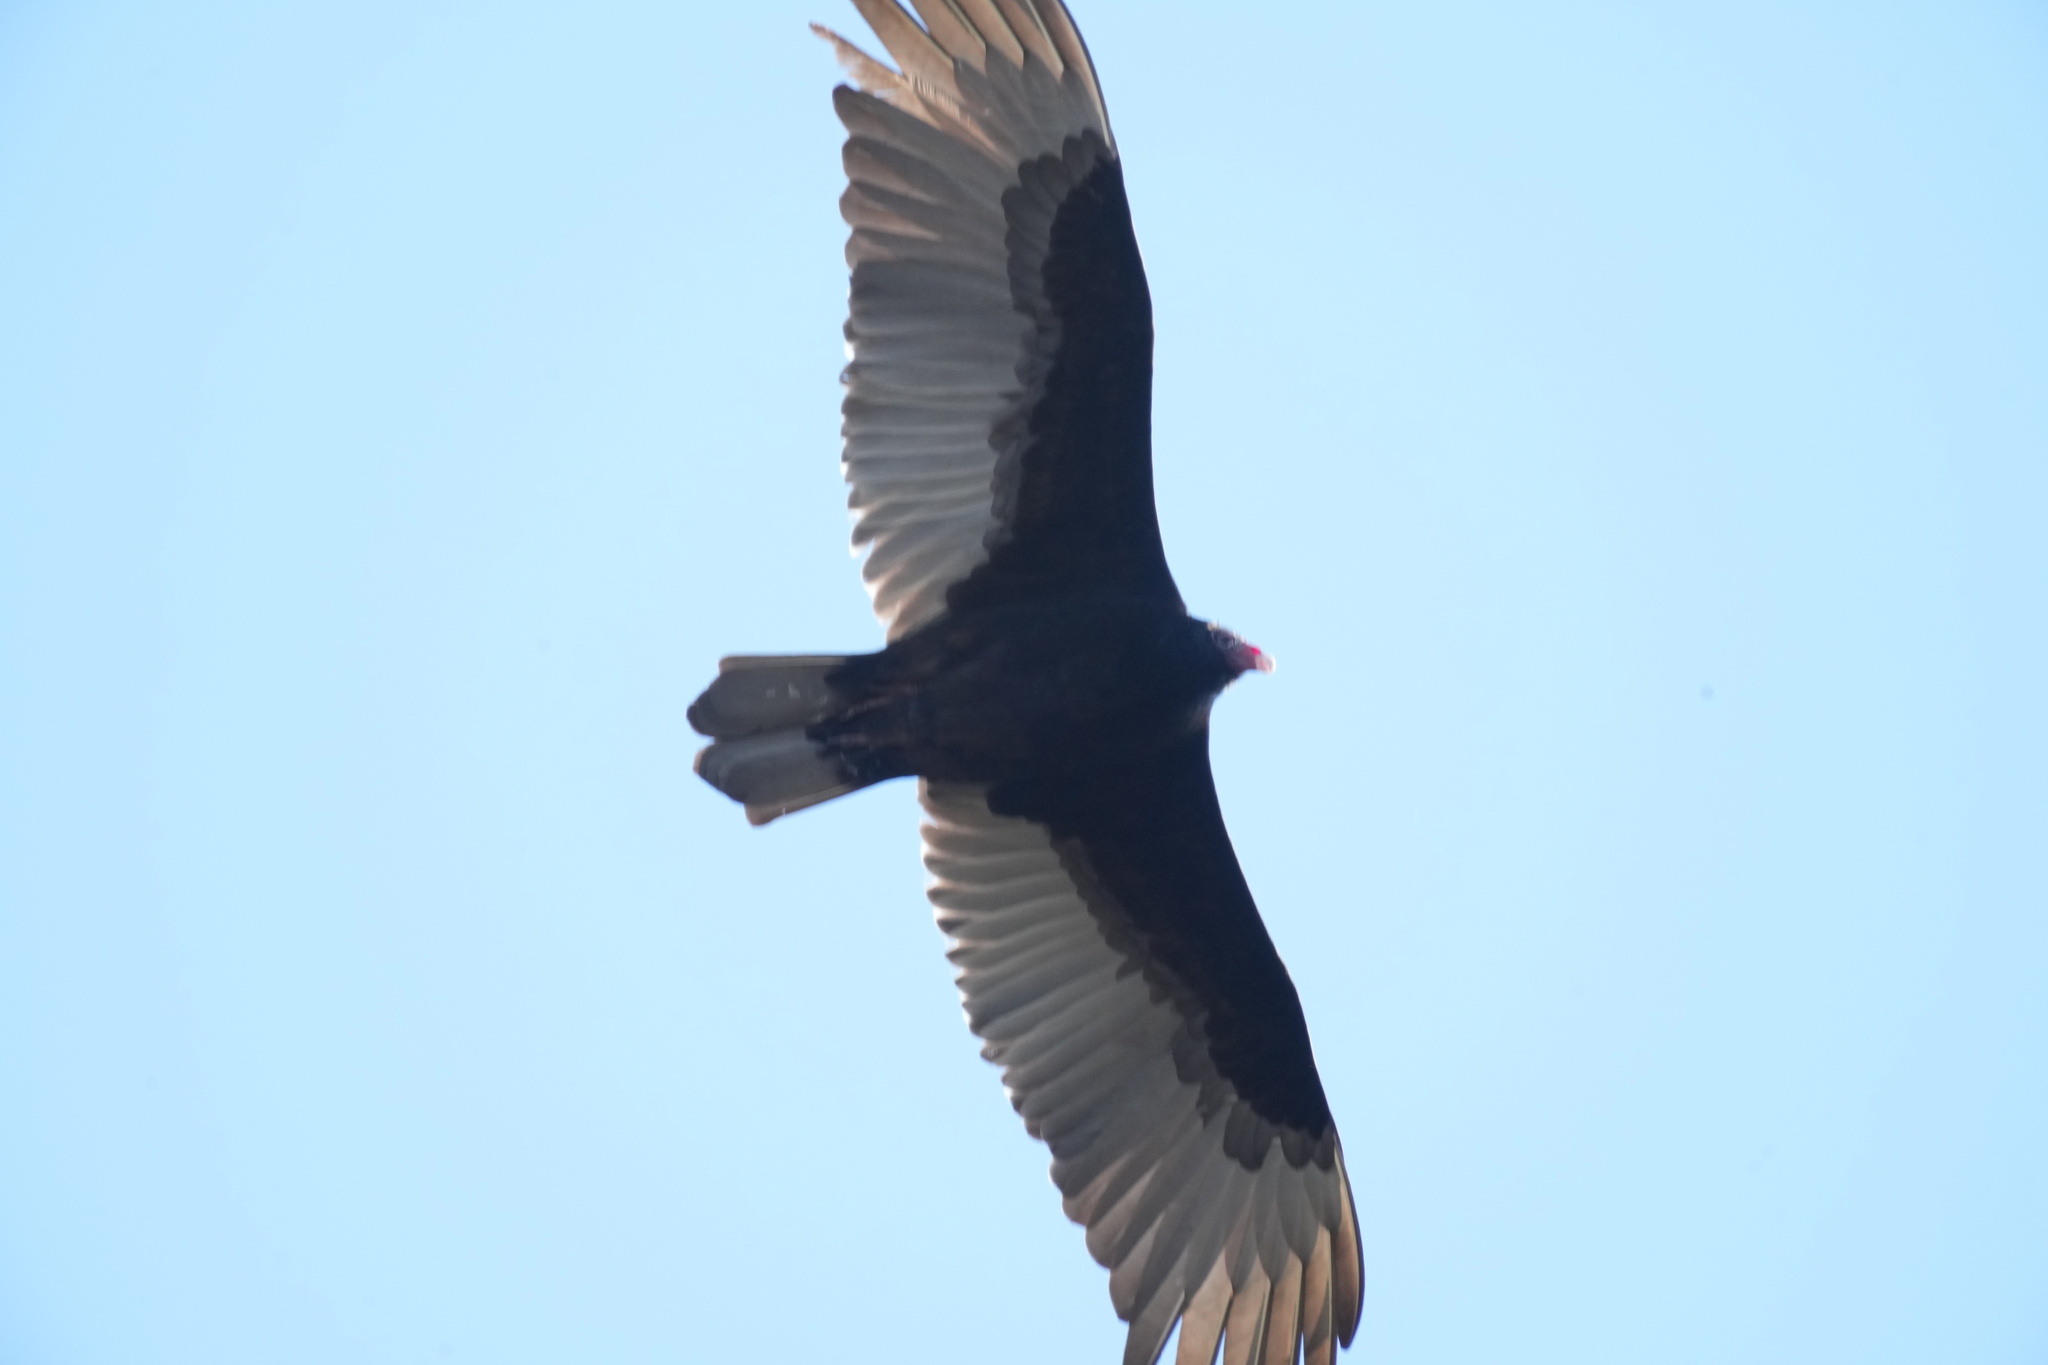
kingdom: Animalia
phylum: Chordata
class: Aves
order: Accipitriformes
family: Cathartidae
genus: Cathartes
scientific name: Cathartes aura
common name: Turkey vulture
